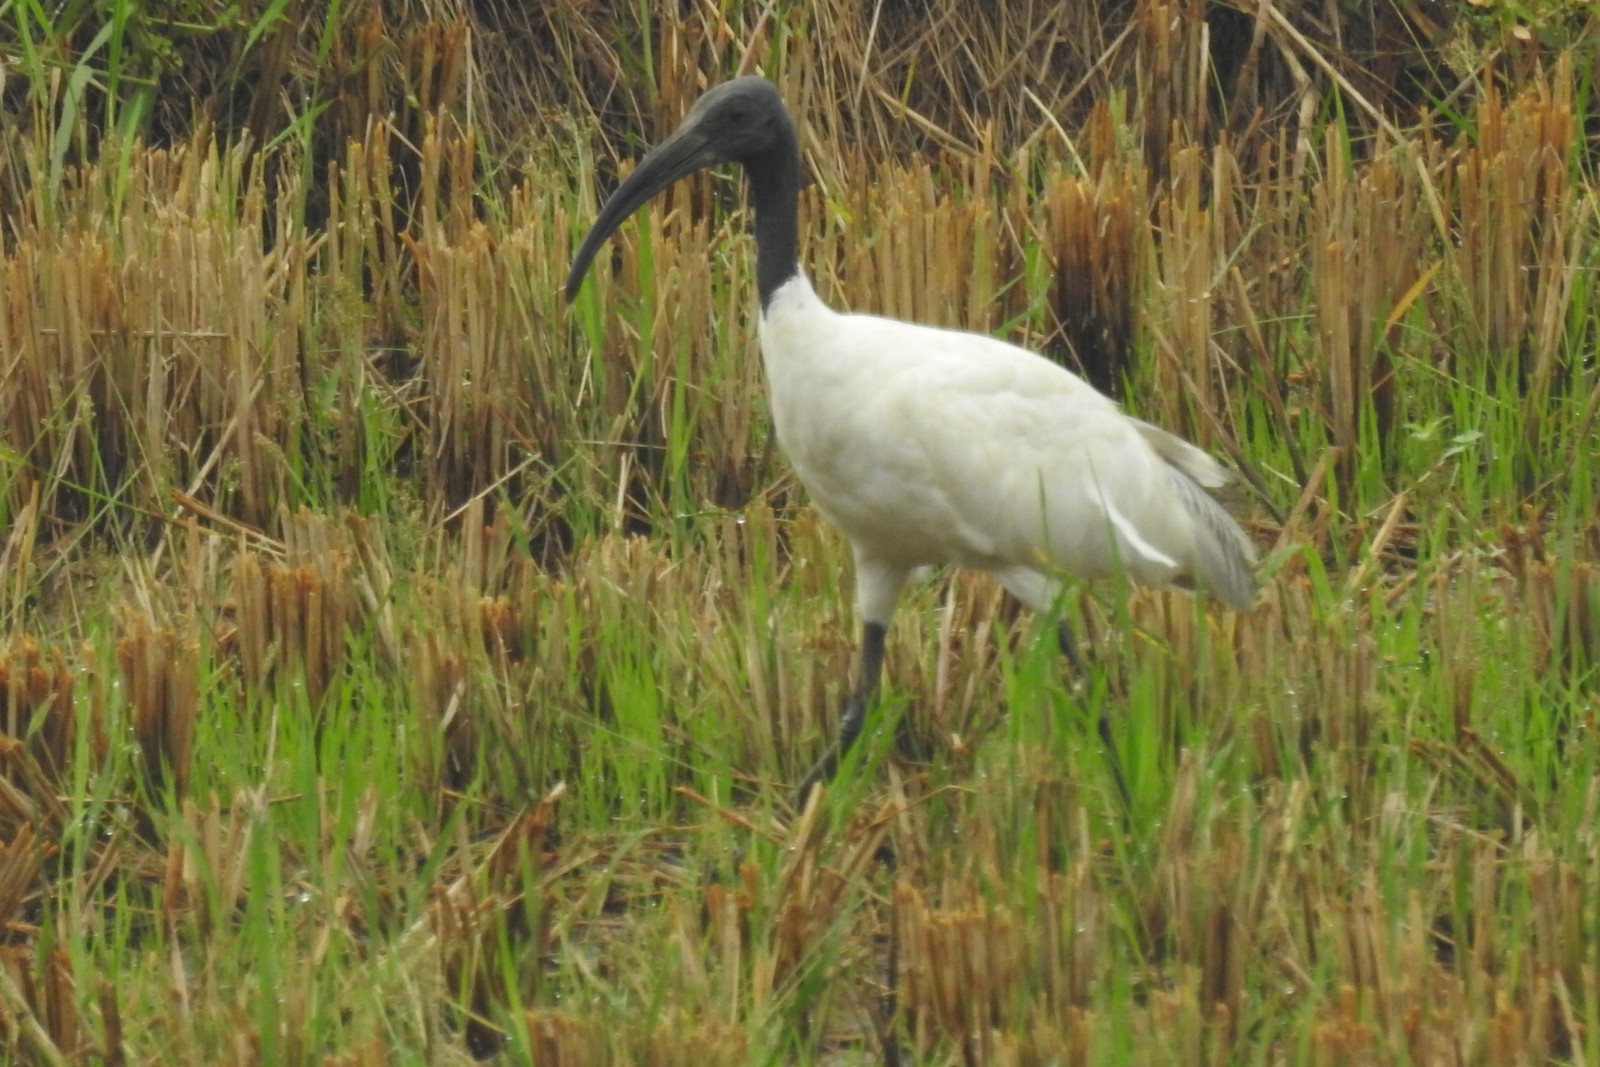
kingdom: Animalia
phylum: Chordata
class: Aves
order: Pelecaniformes
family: Threskiornithidae
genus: Threskiornis
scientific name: Threskiornis melanocephalus
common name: Black-headed ibis
